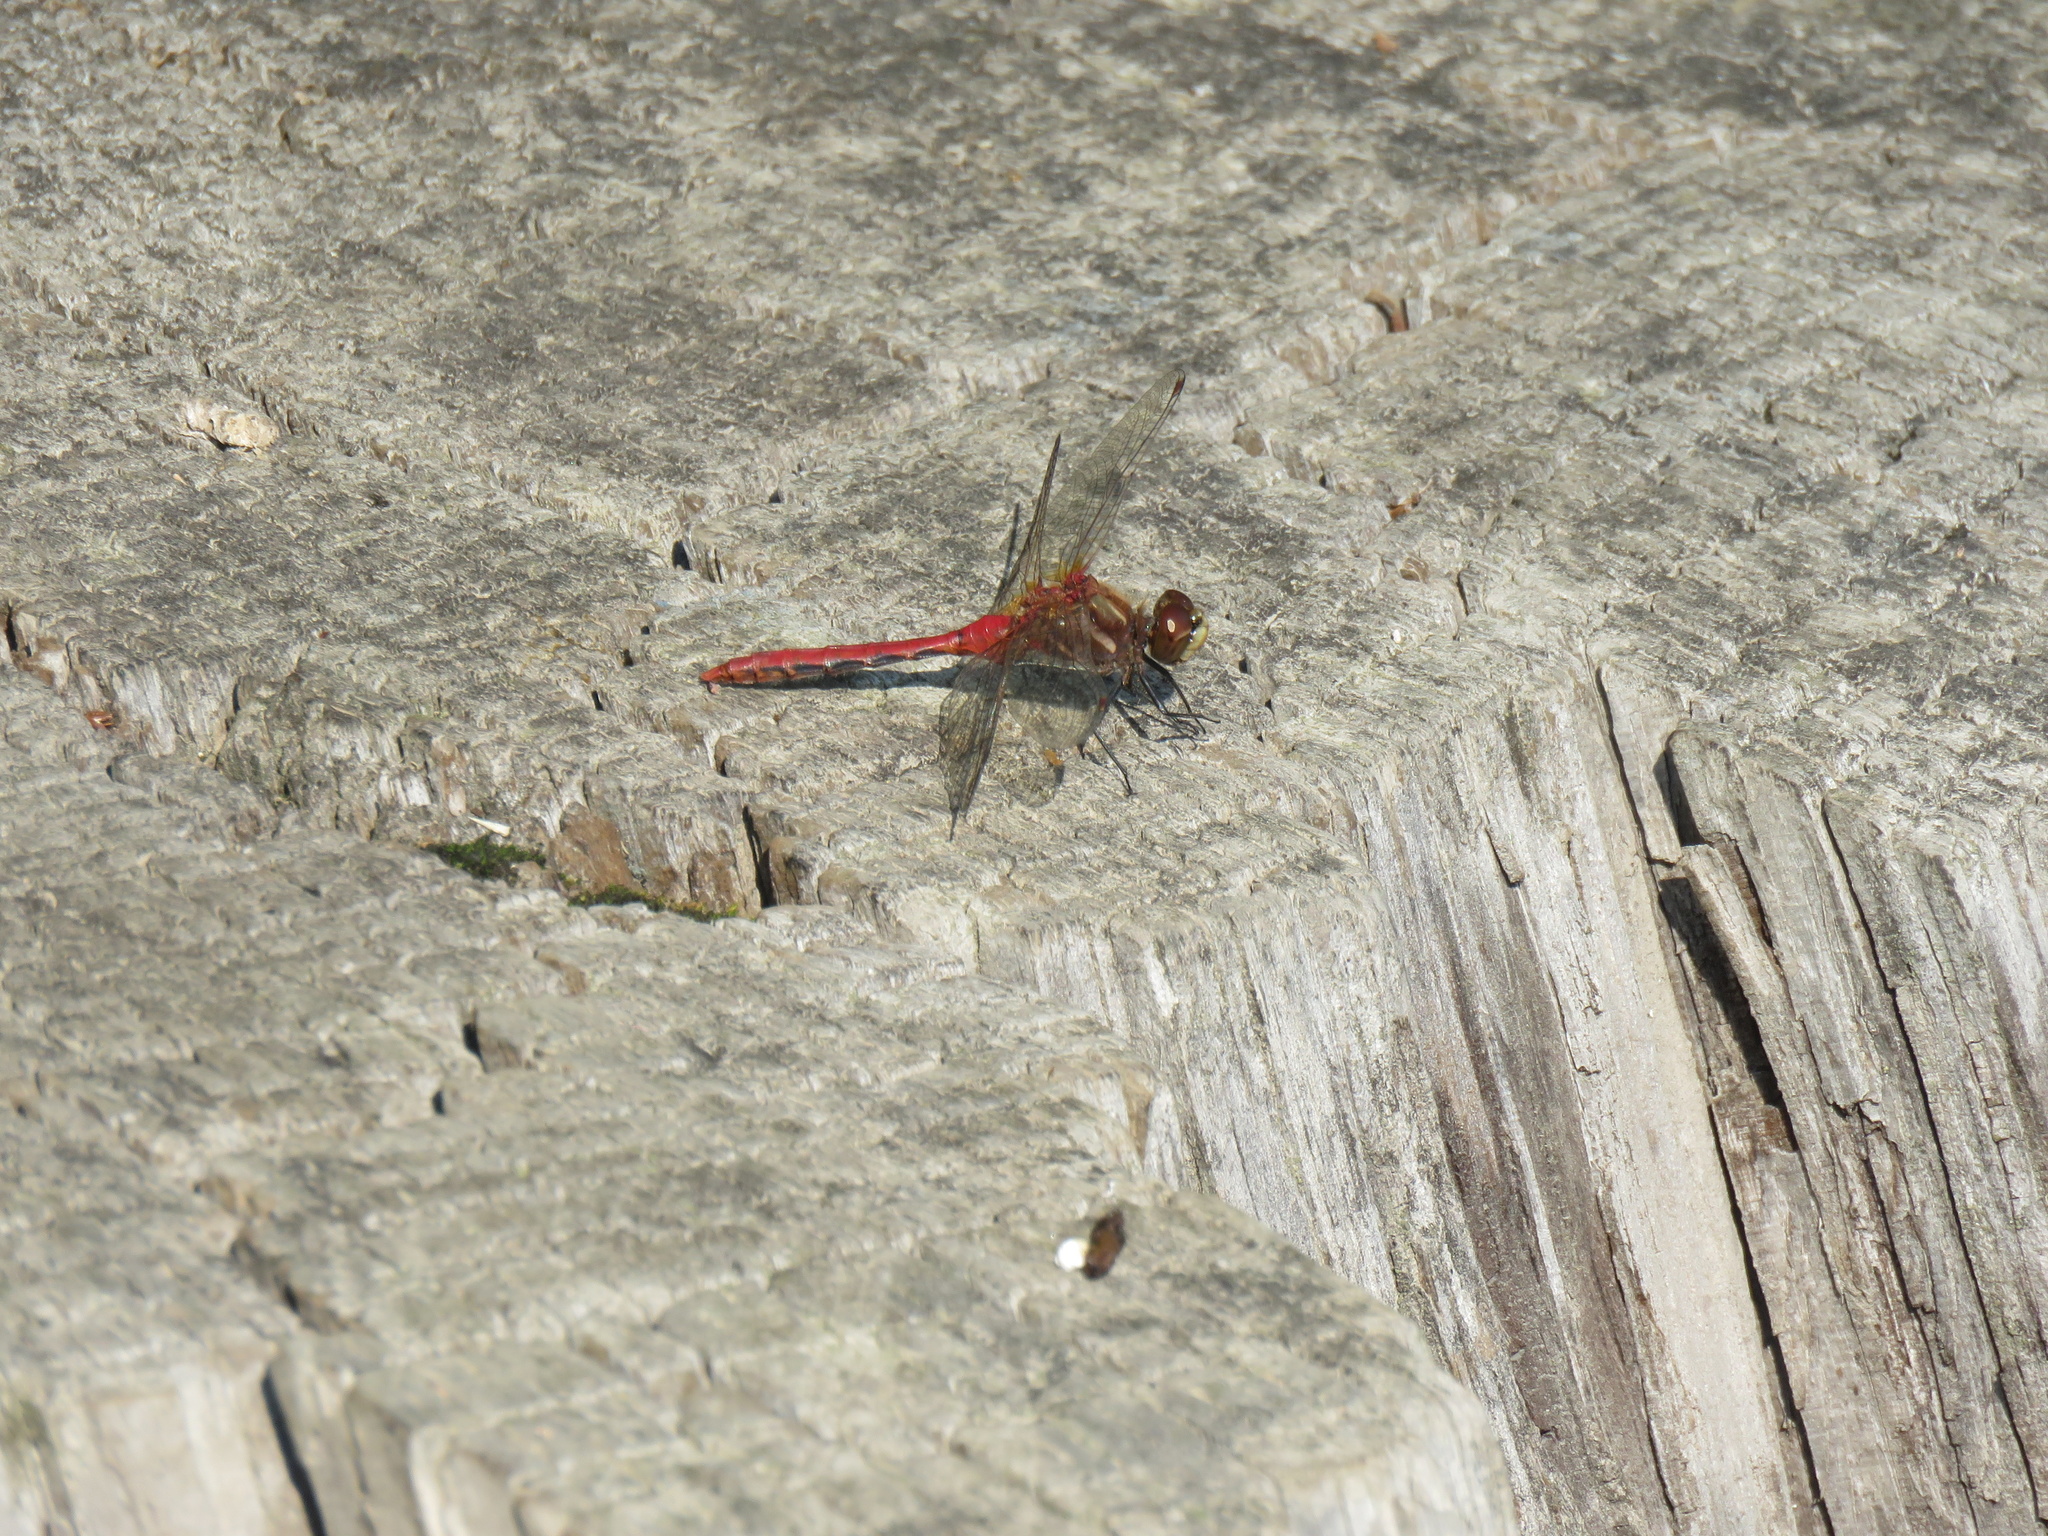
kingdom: Animalia
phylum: Arthropoda
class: Insecta
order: Odonata
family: Libellulidae
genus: Sympetrum
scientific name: Sympetrum pallipes
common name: Striped meadowhawk
